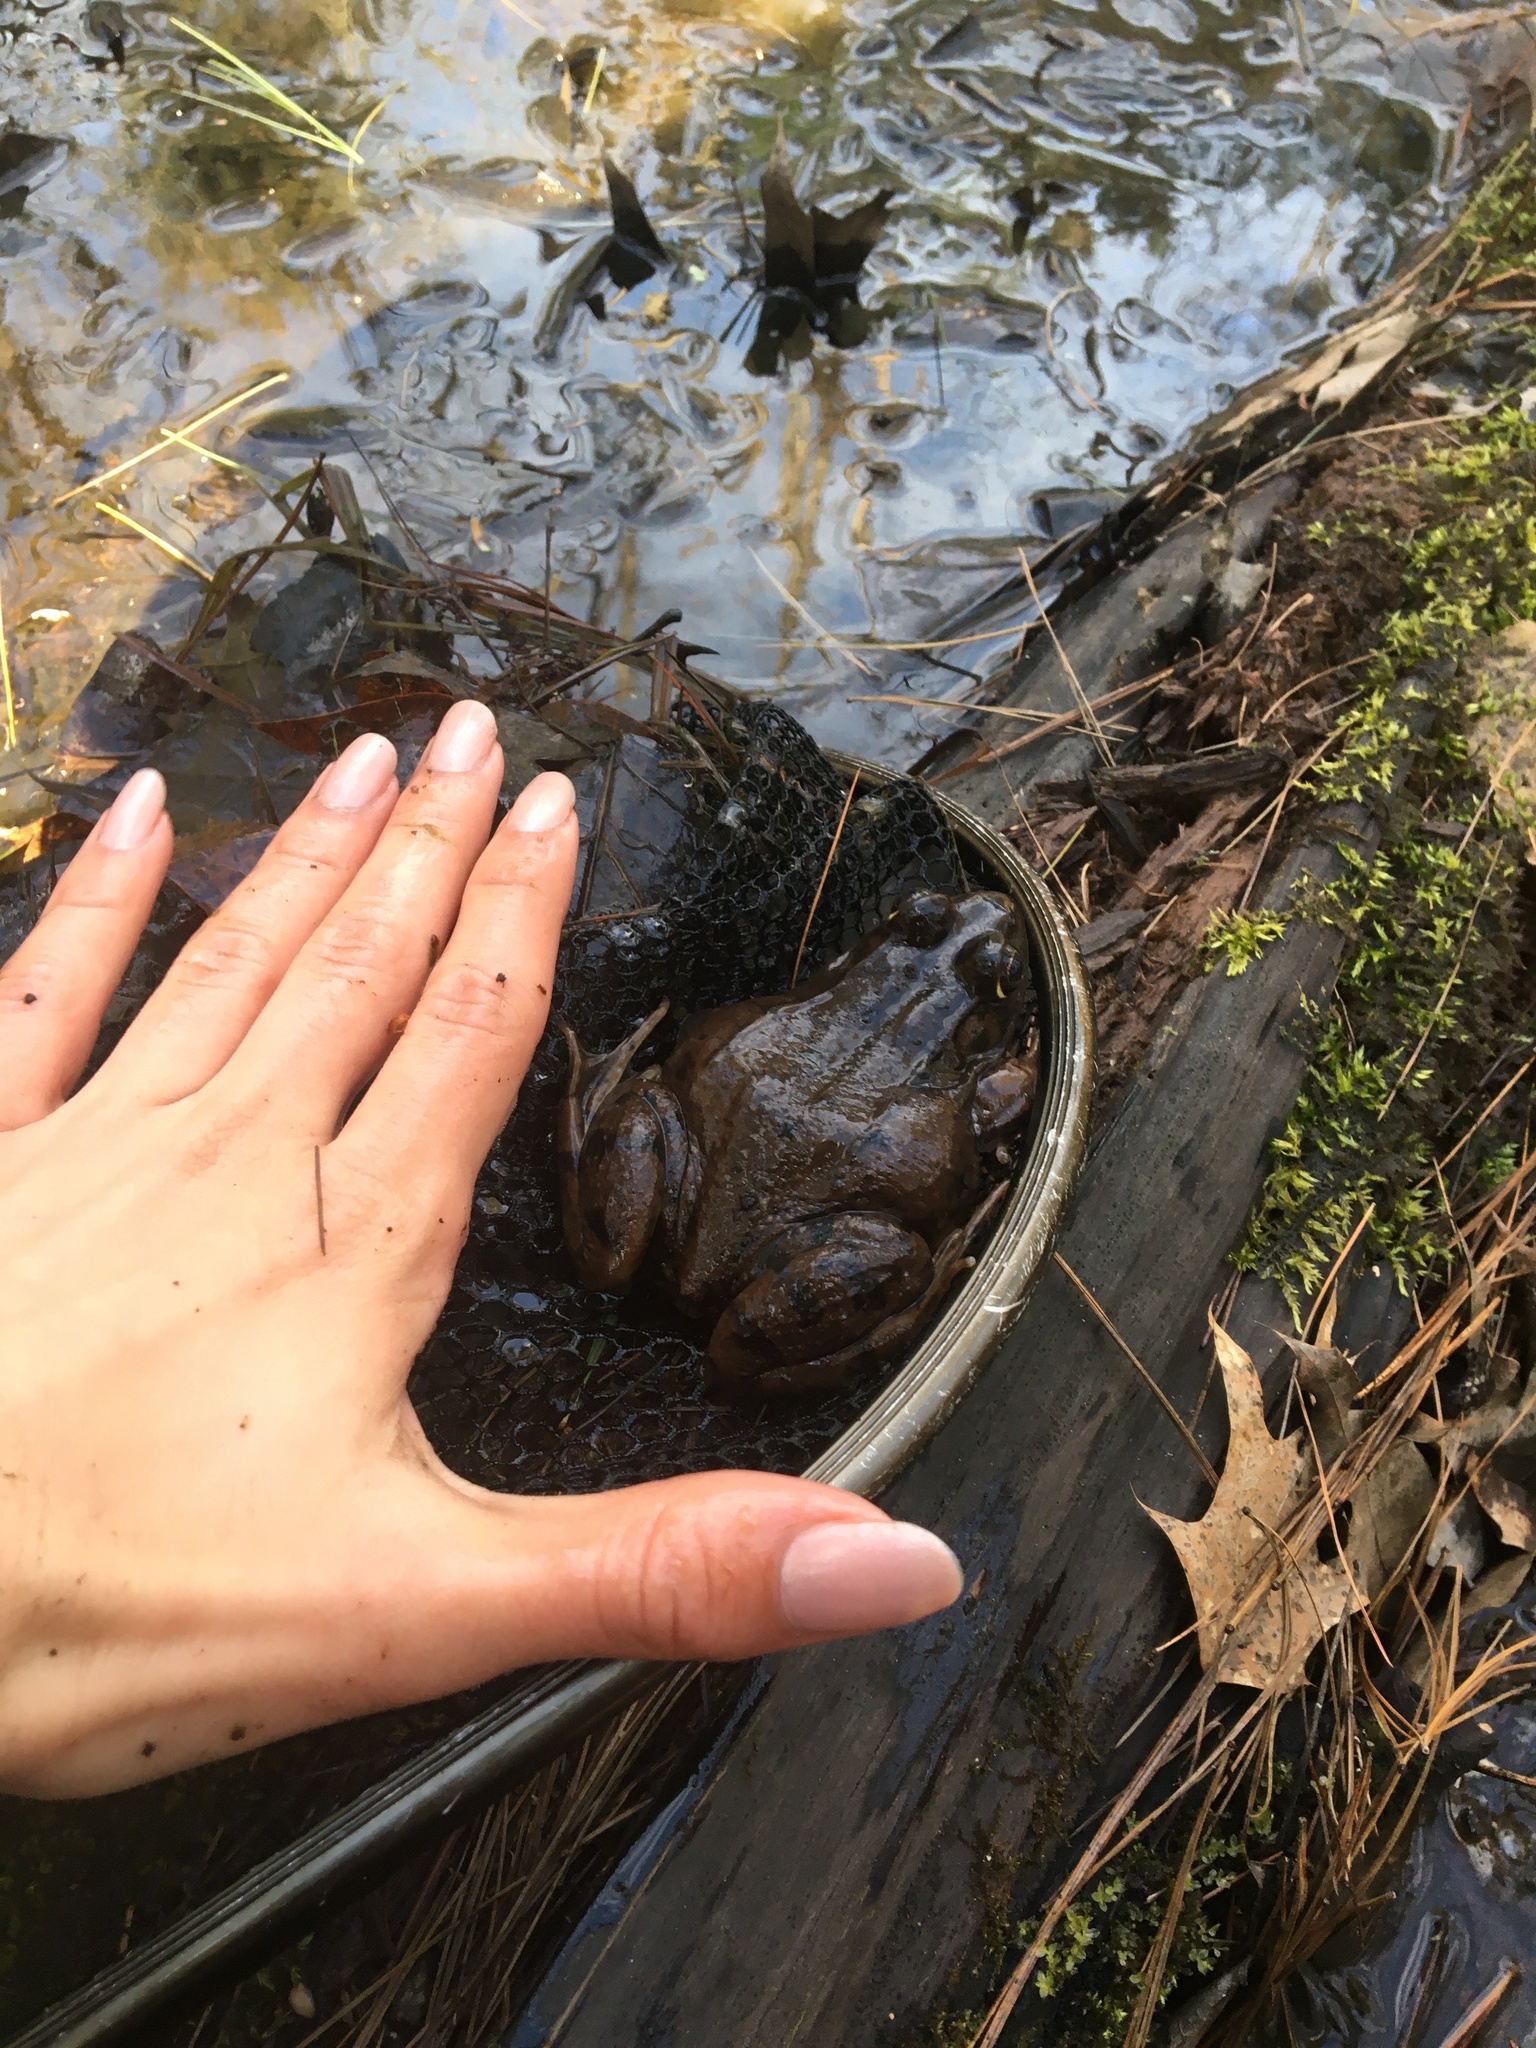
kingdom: Animalia
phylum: Chordata
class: Amphibia
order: Anura
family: Ranidae
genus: Lithobates
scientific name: Lithobates clamitans
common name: Green frog
